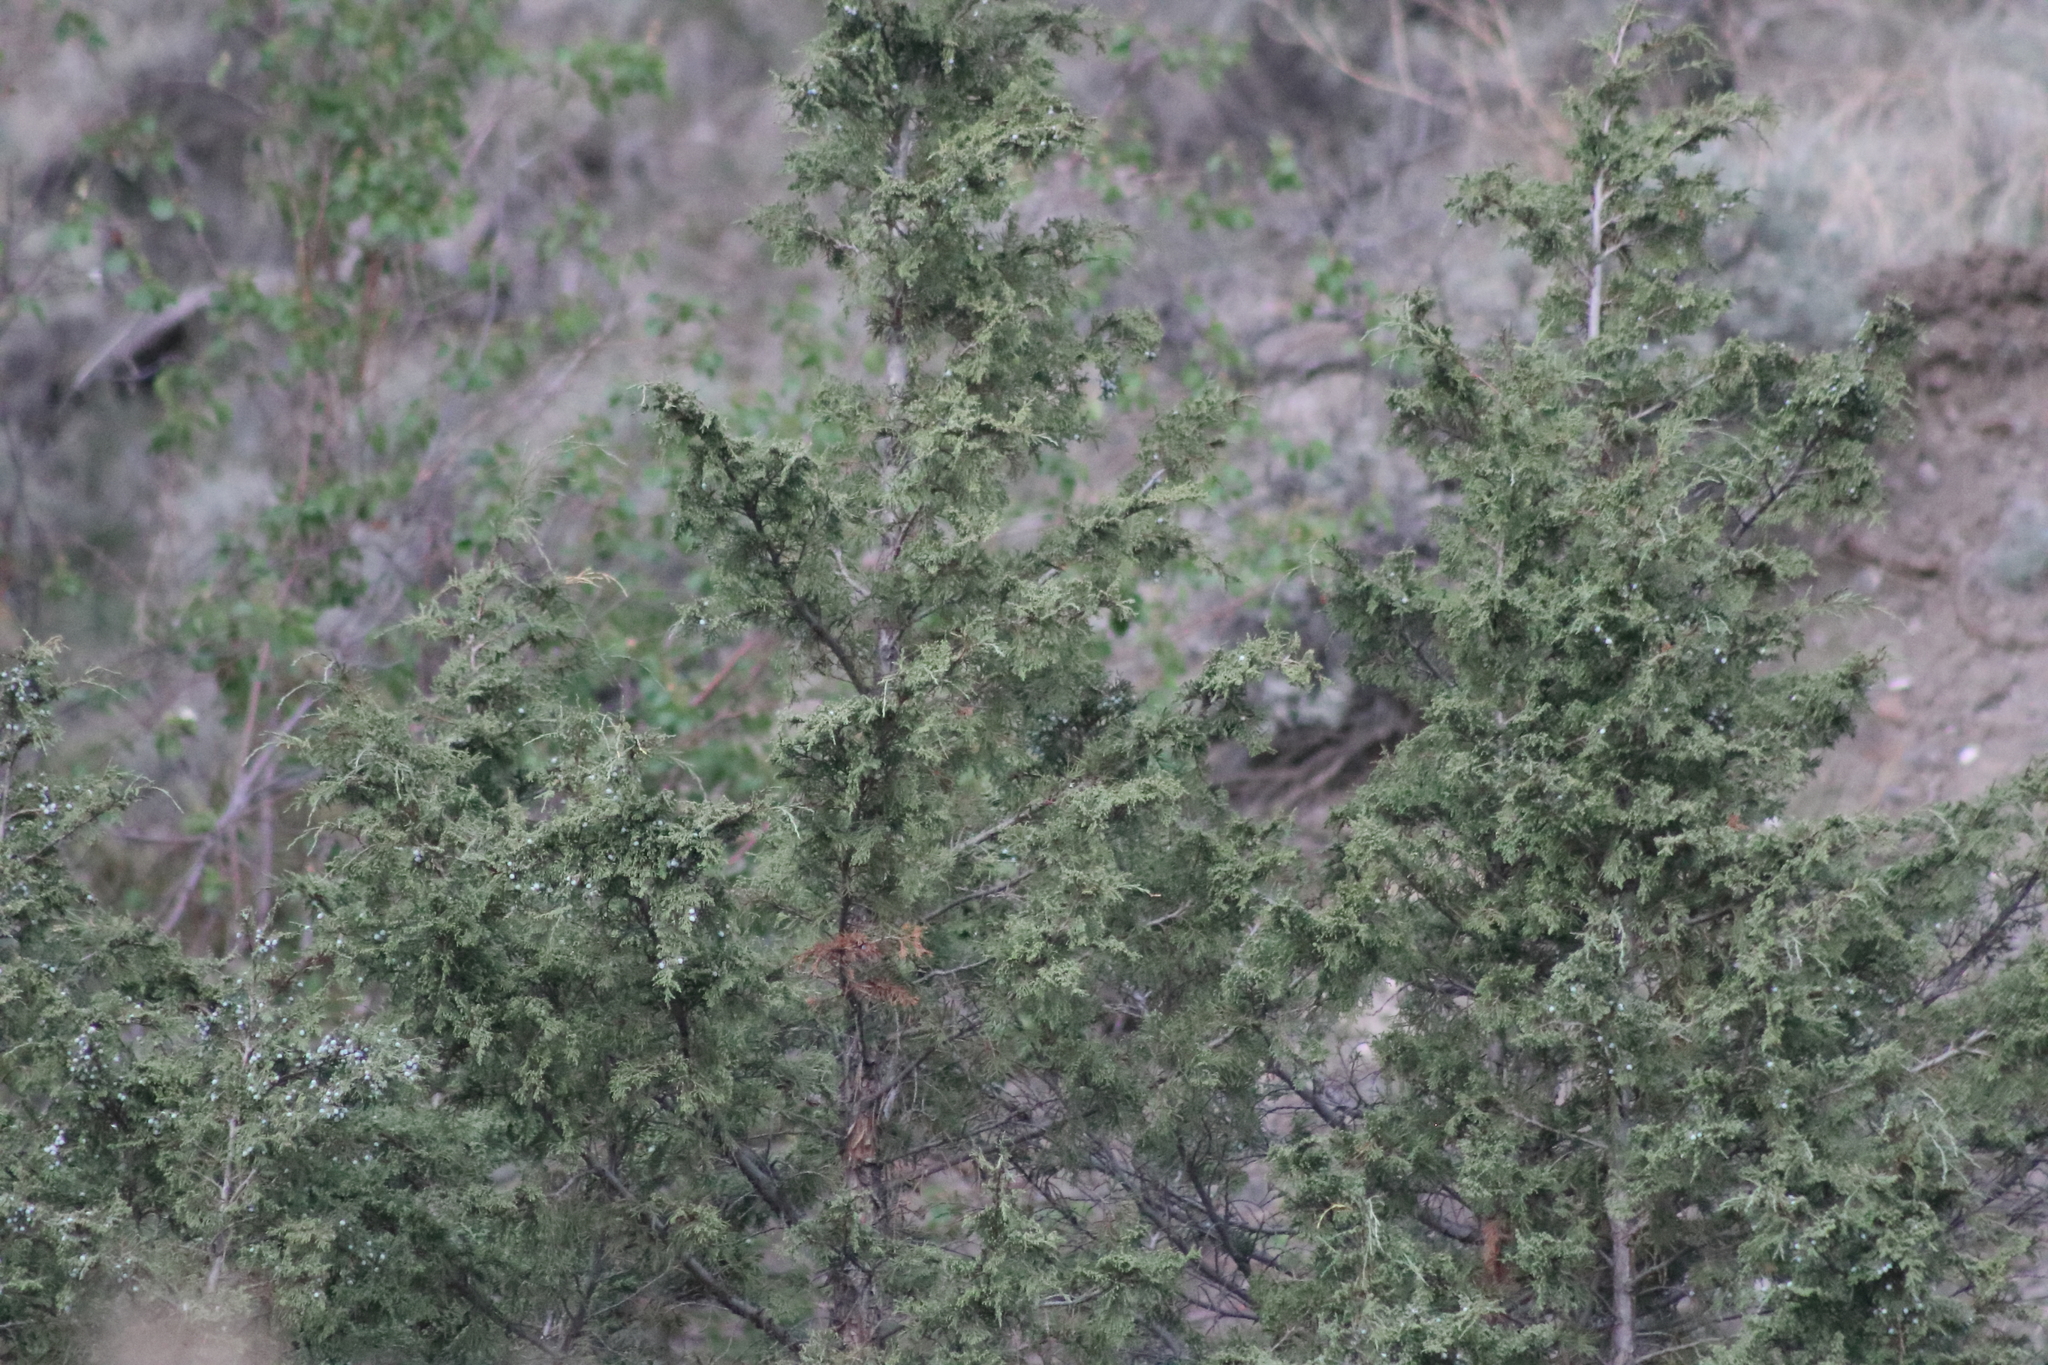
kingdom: Plantae
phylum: Tracheophyta
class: Pinopsida
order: Pinales
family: Cupressaceae
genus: Juniperus
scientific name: Juniperus scopulorum
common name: Rocky mountain juniper
